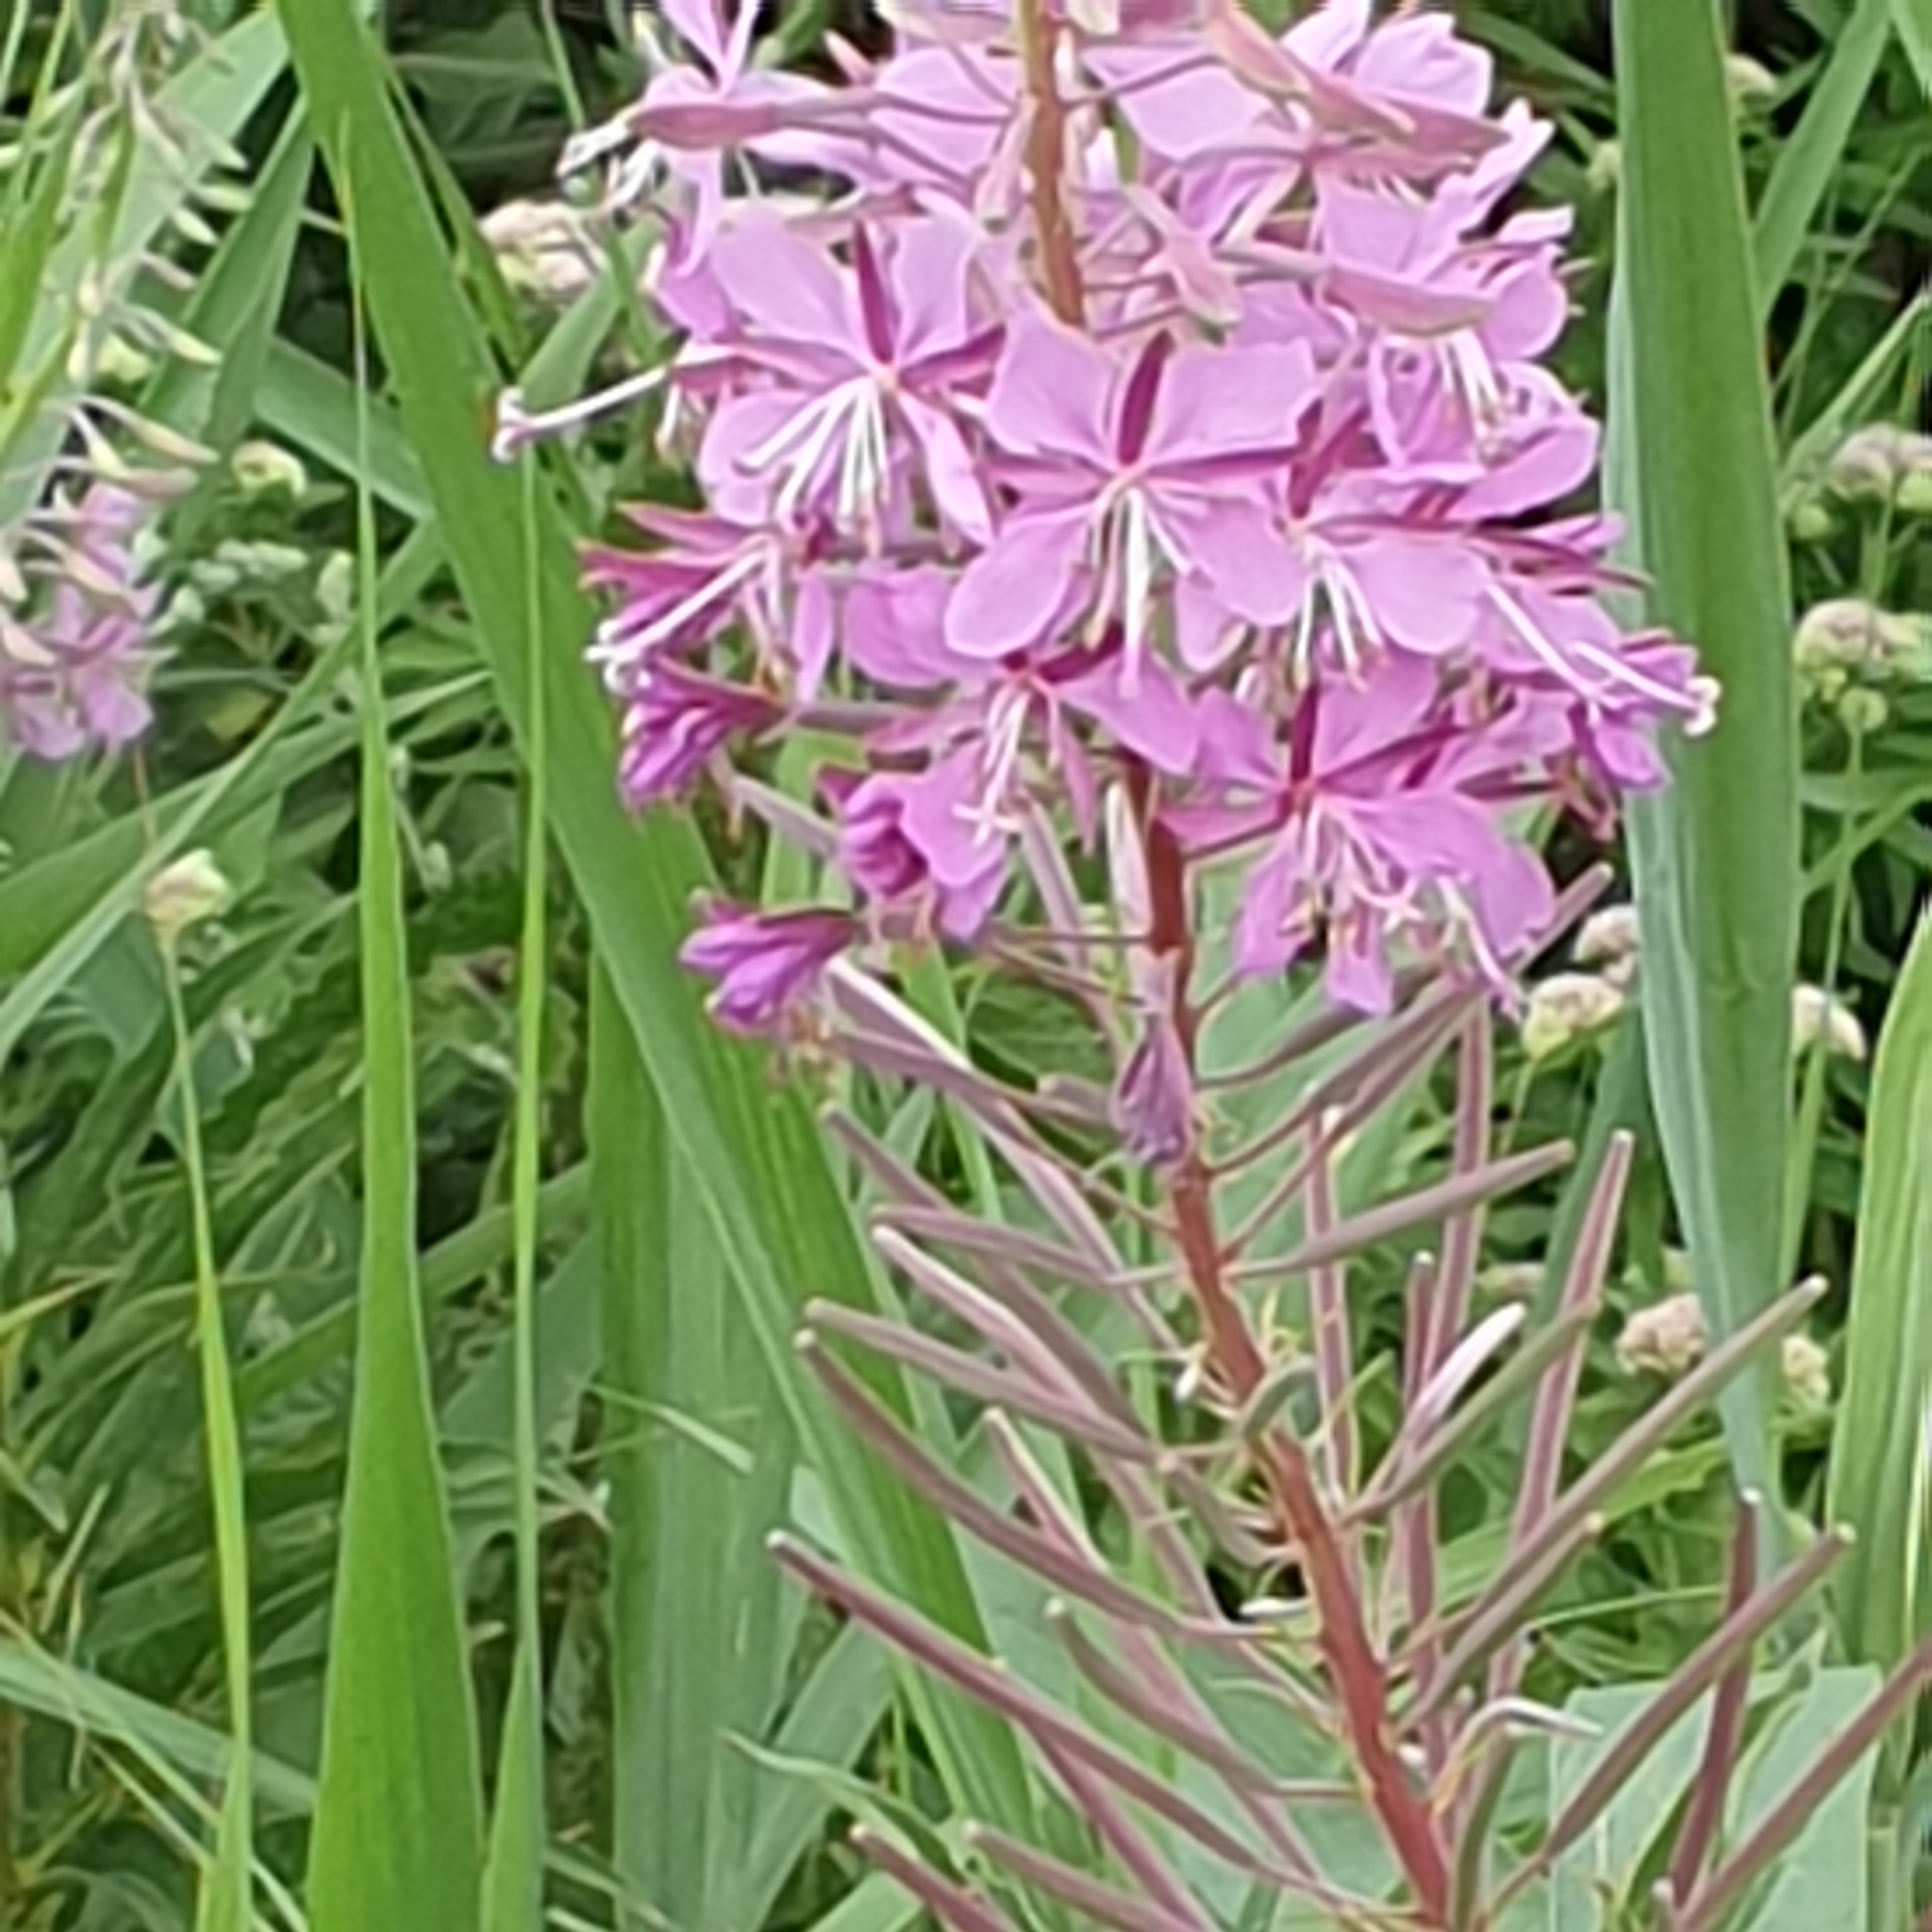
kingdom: Plantae
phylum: Tracheophyta
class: Magnoliopsida
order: Myrtales
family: Onagraceae
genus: Chamaenerion
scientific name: Chamaenerion angustifolium
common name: Fireweed
